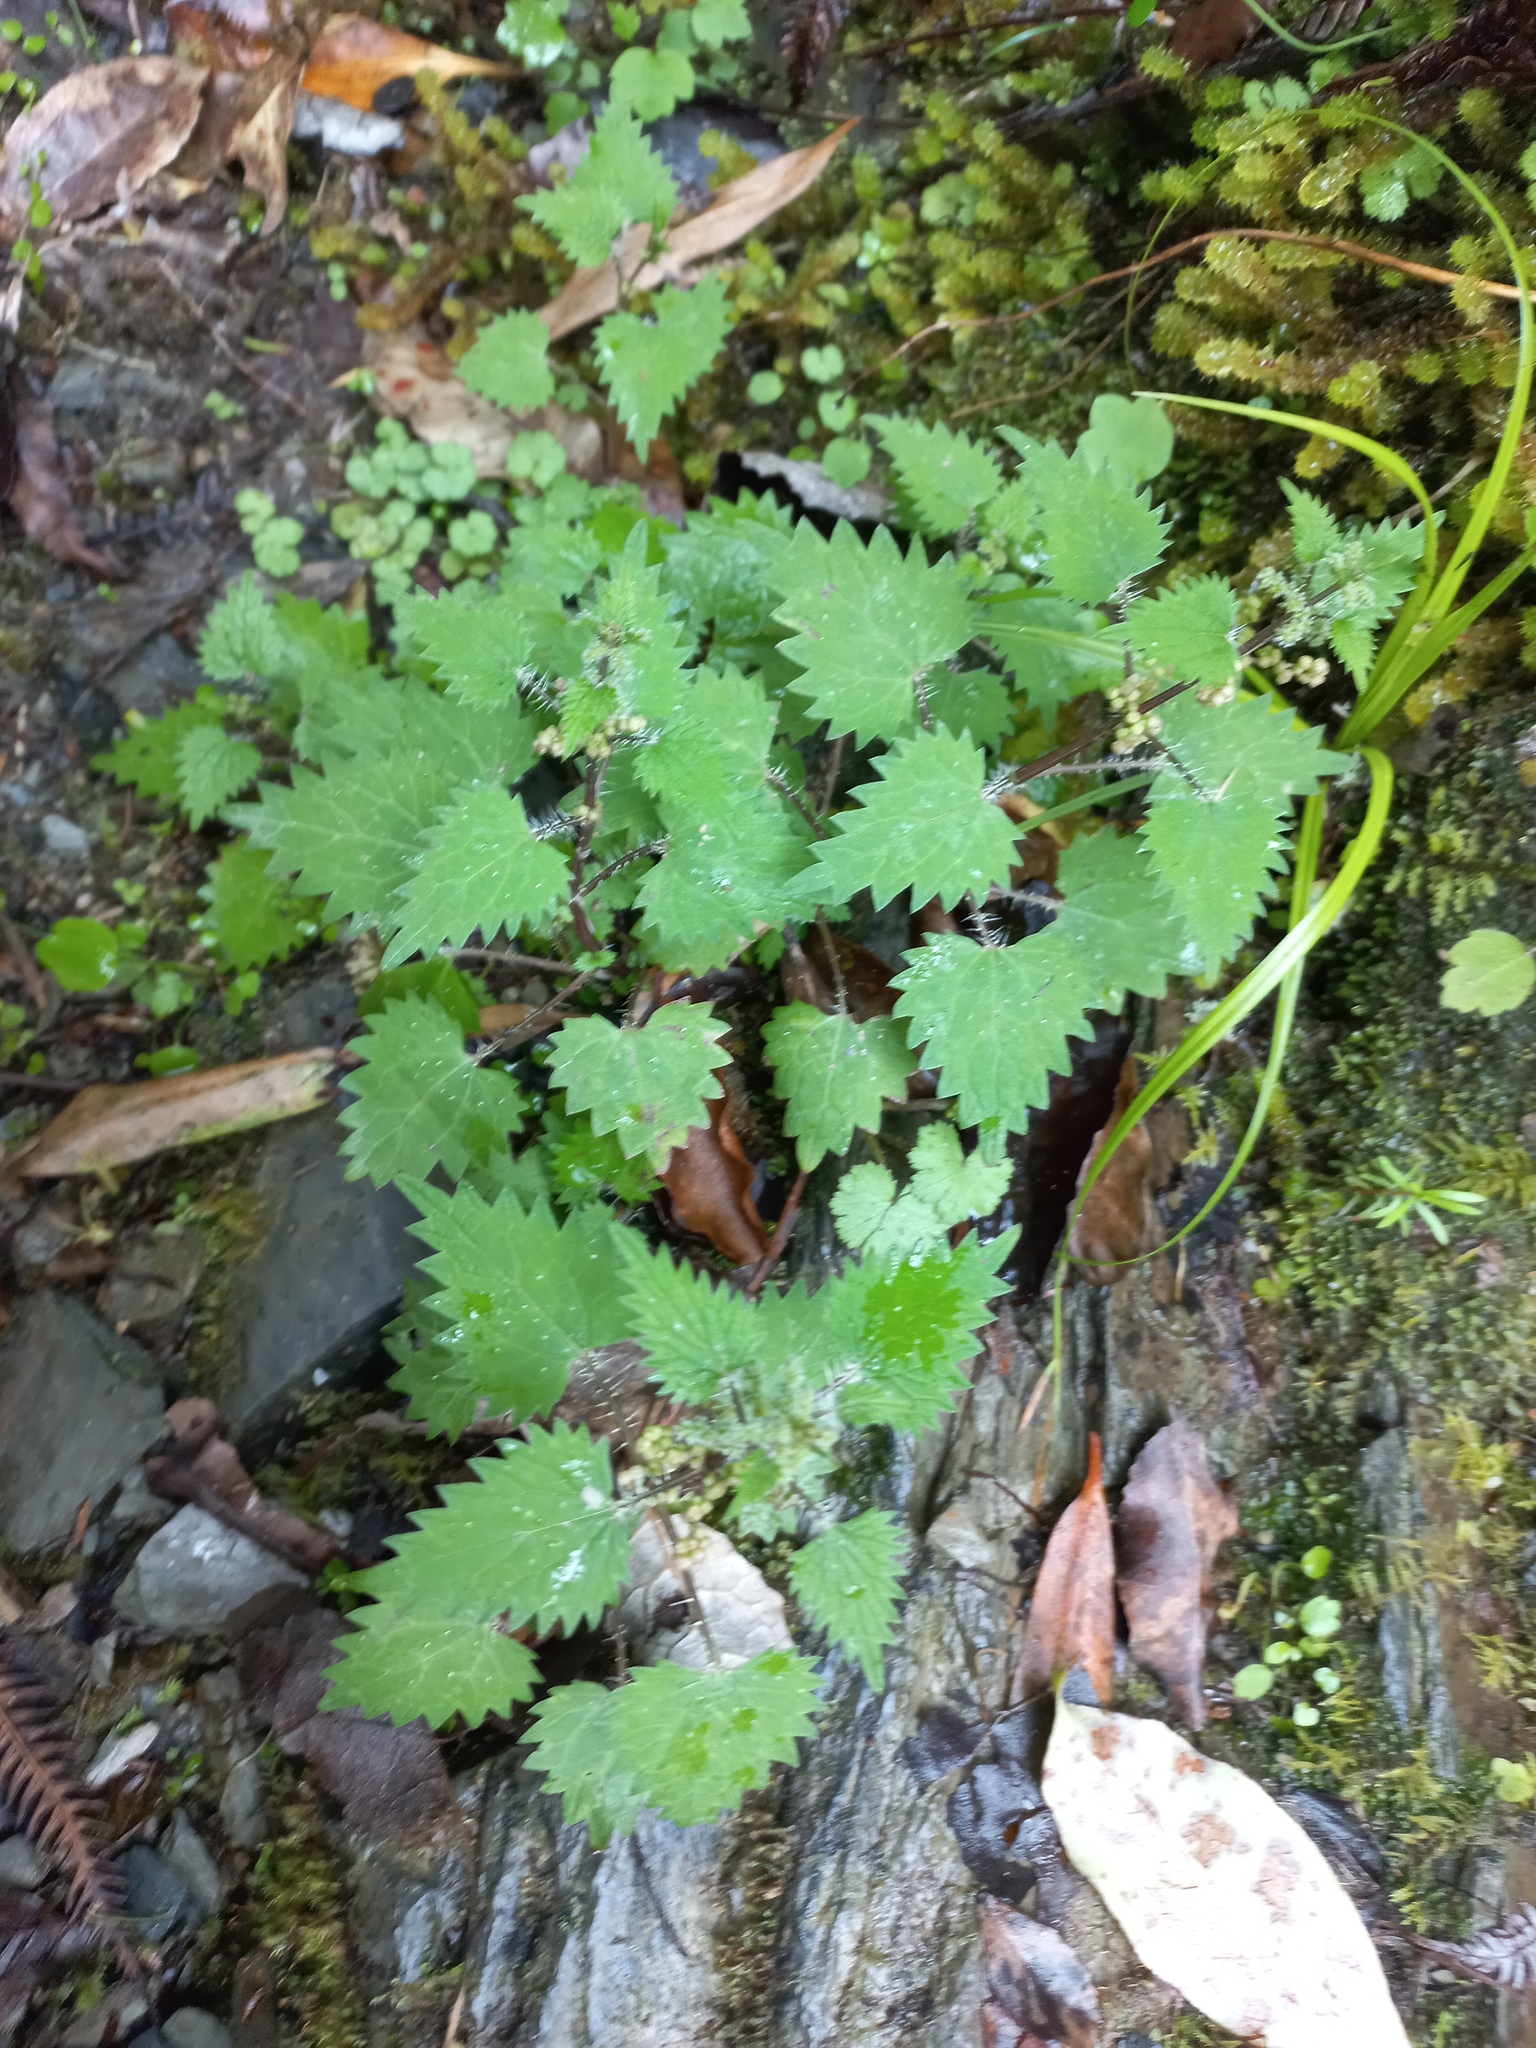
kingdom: Plantae
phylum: Tracheophyta
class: Magnoliopsida
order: Rosales
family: Urticaceae
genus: Urtica
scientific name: Urtica sykesii
